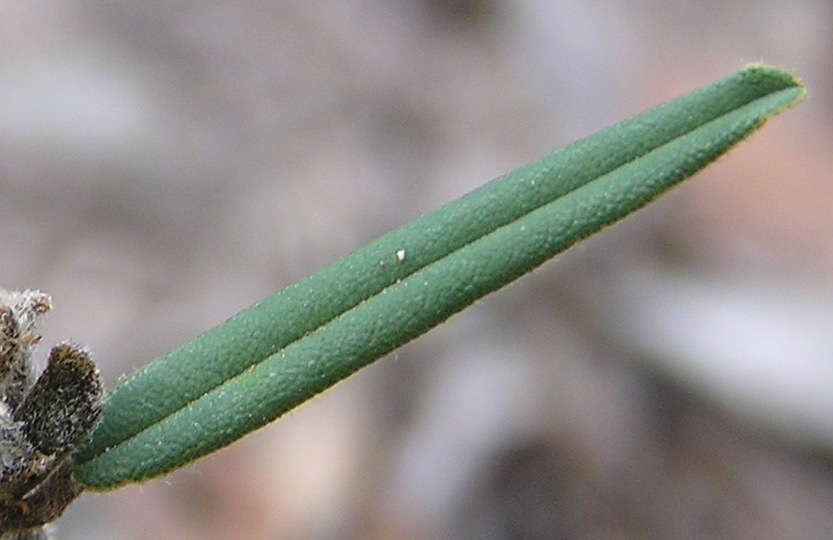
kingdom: Plantae
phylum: Tracheophyta
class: Magnoliopsida
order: Fabales
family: Fabaceae
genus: Hovea
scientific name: Hovea heterophylla
